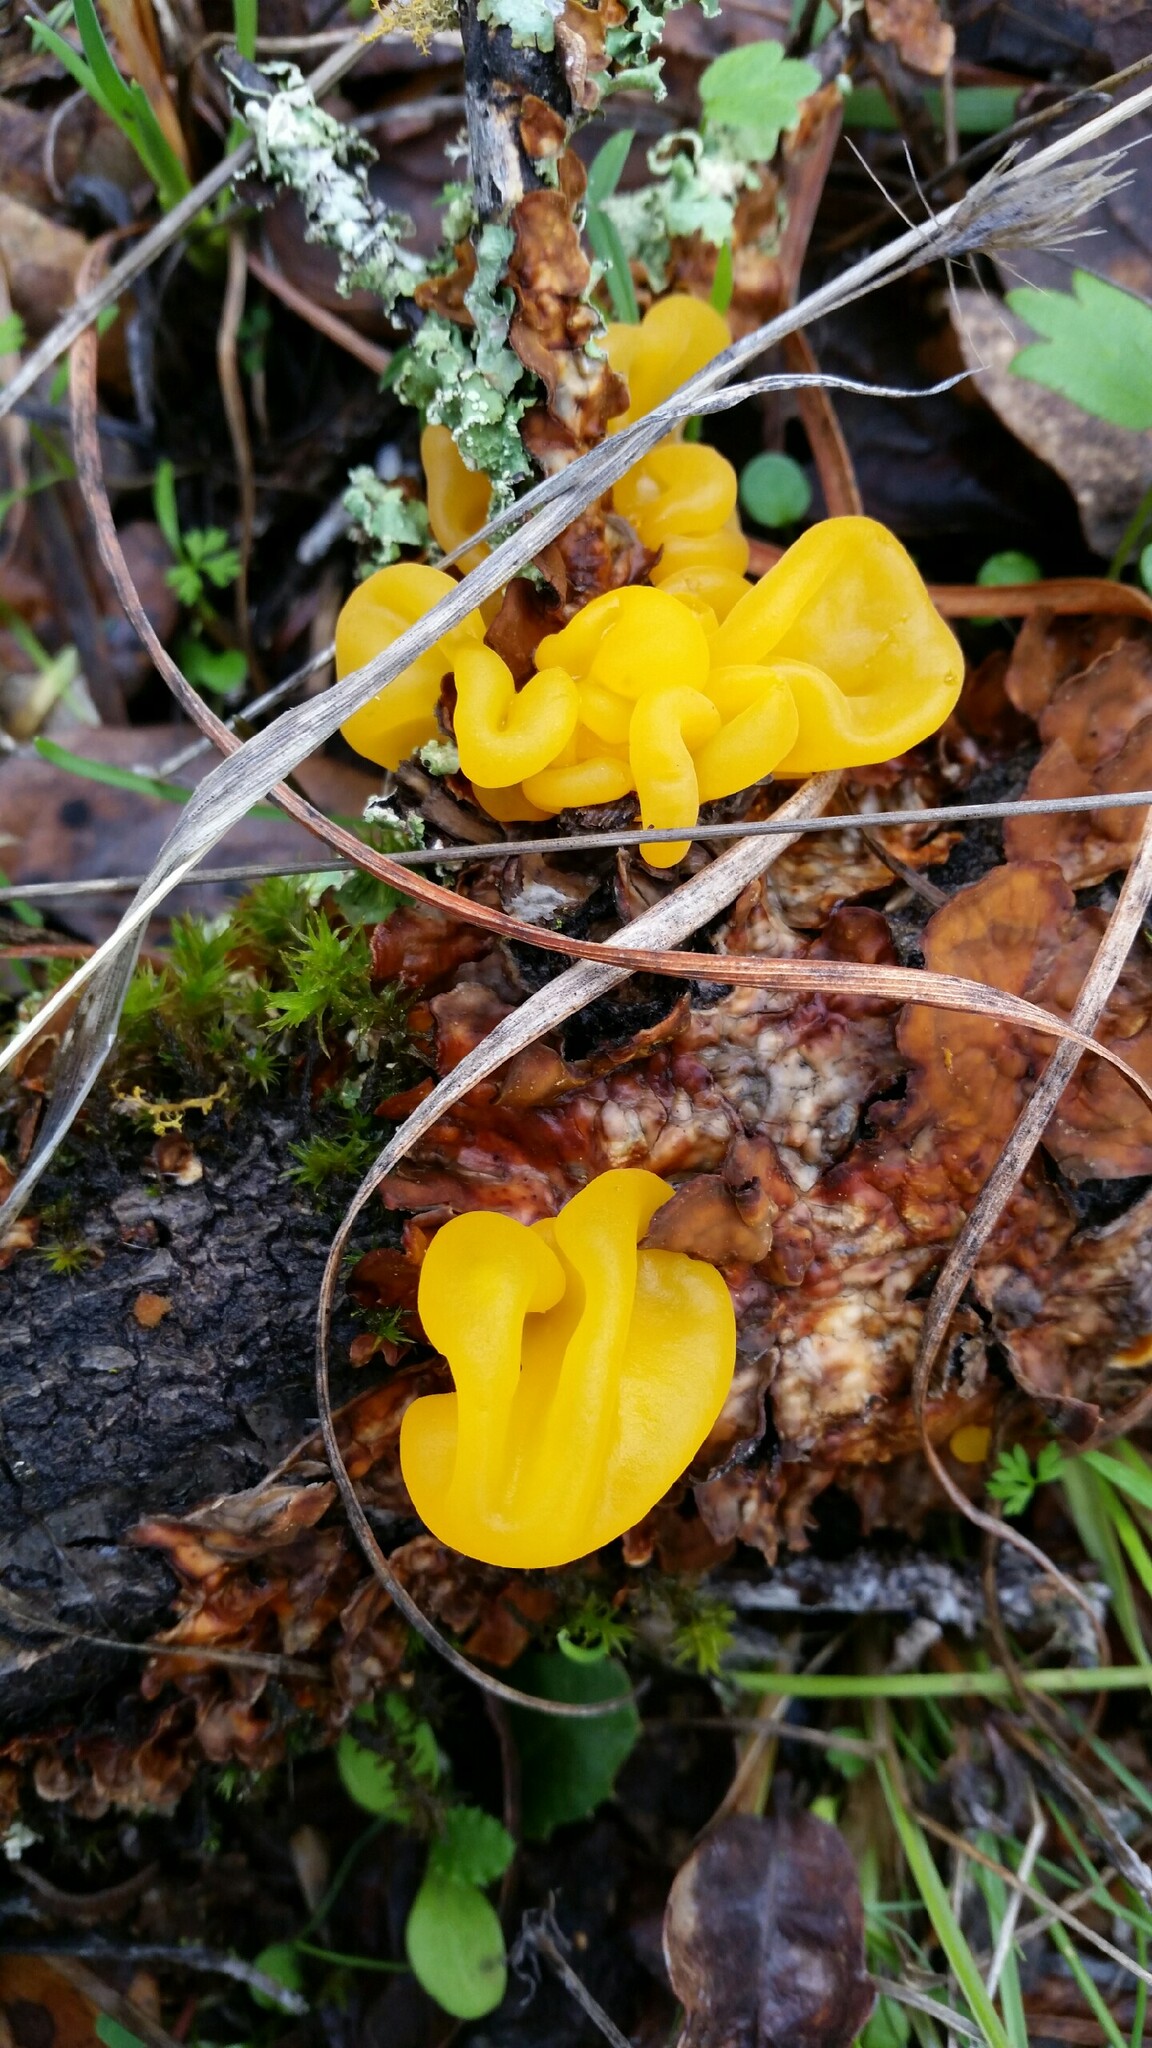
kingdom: Fungi
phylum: Basidiomycota
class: Tremellomycetes
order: Tremellales
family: Naemateliaceae
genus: Naematelia
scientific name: Naematelia aurantia
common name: Golden ear
